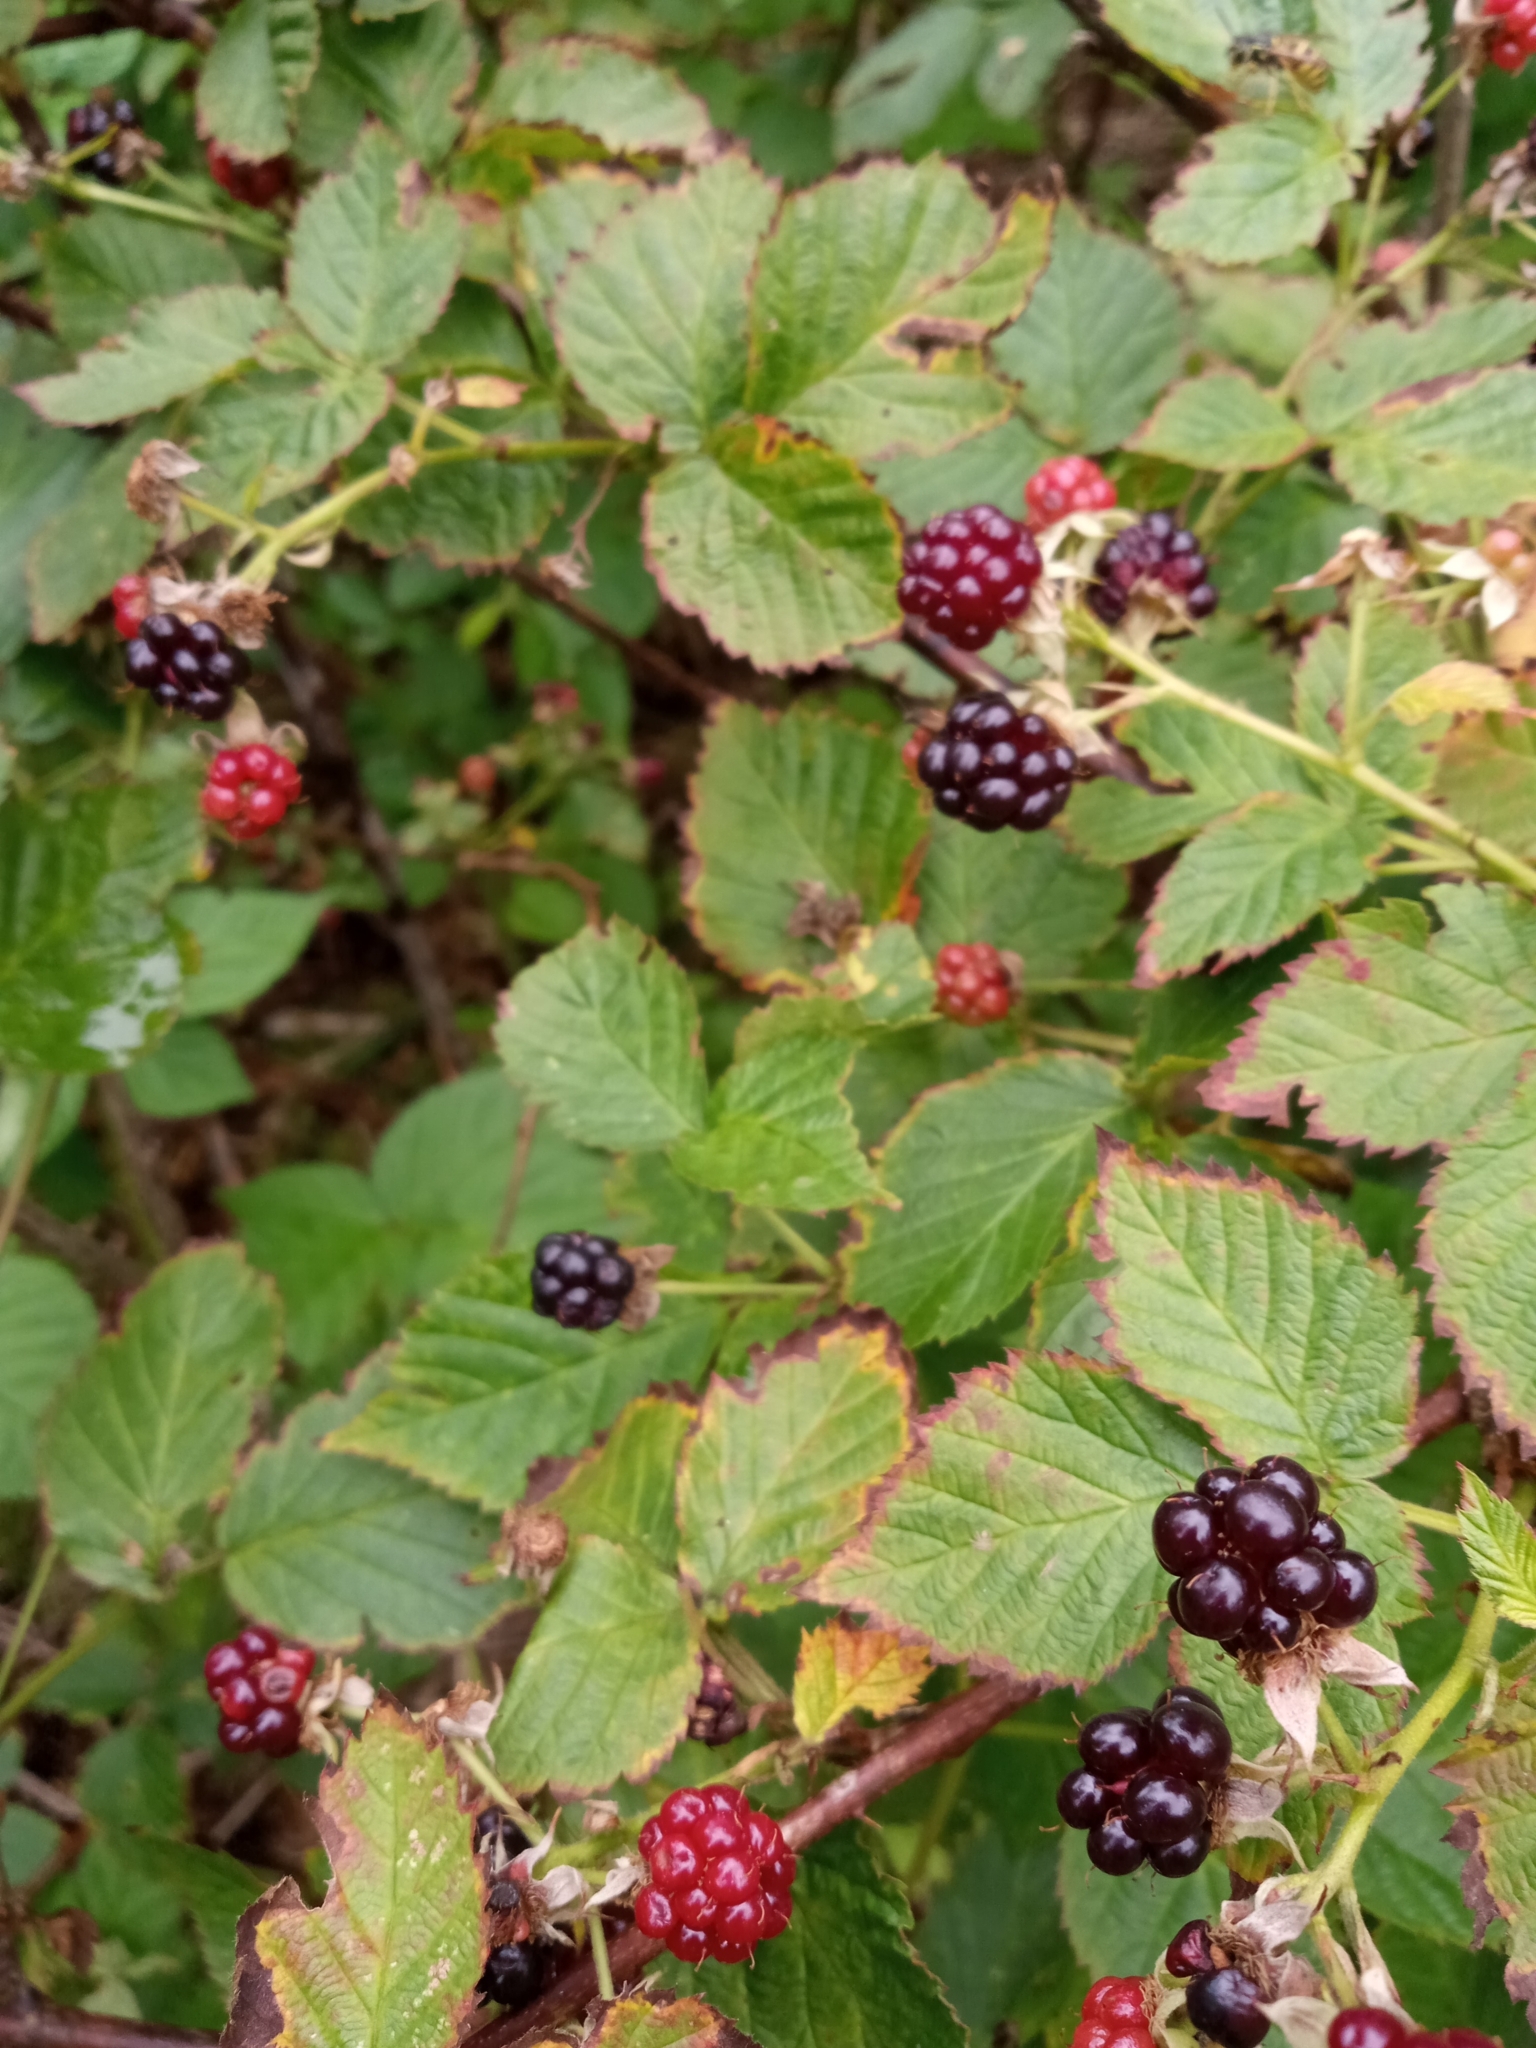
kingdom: Plantae
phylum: Tracheophyta
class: Magnoliopsida
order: Rosales
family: Rosaceae
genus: Rubus
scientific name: Rubus polonicus
